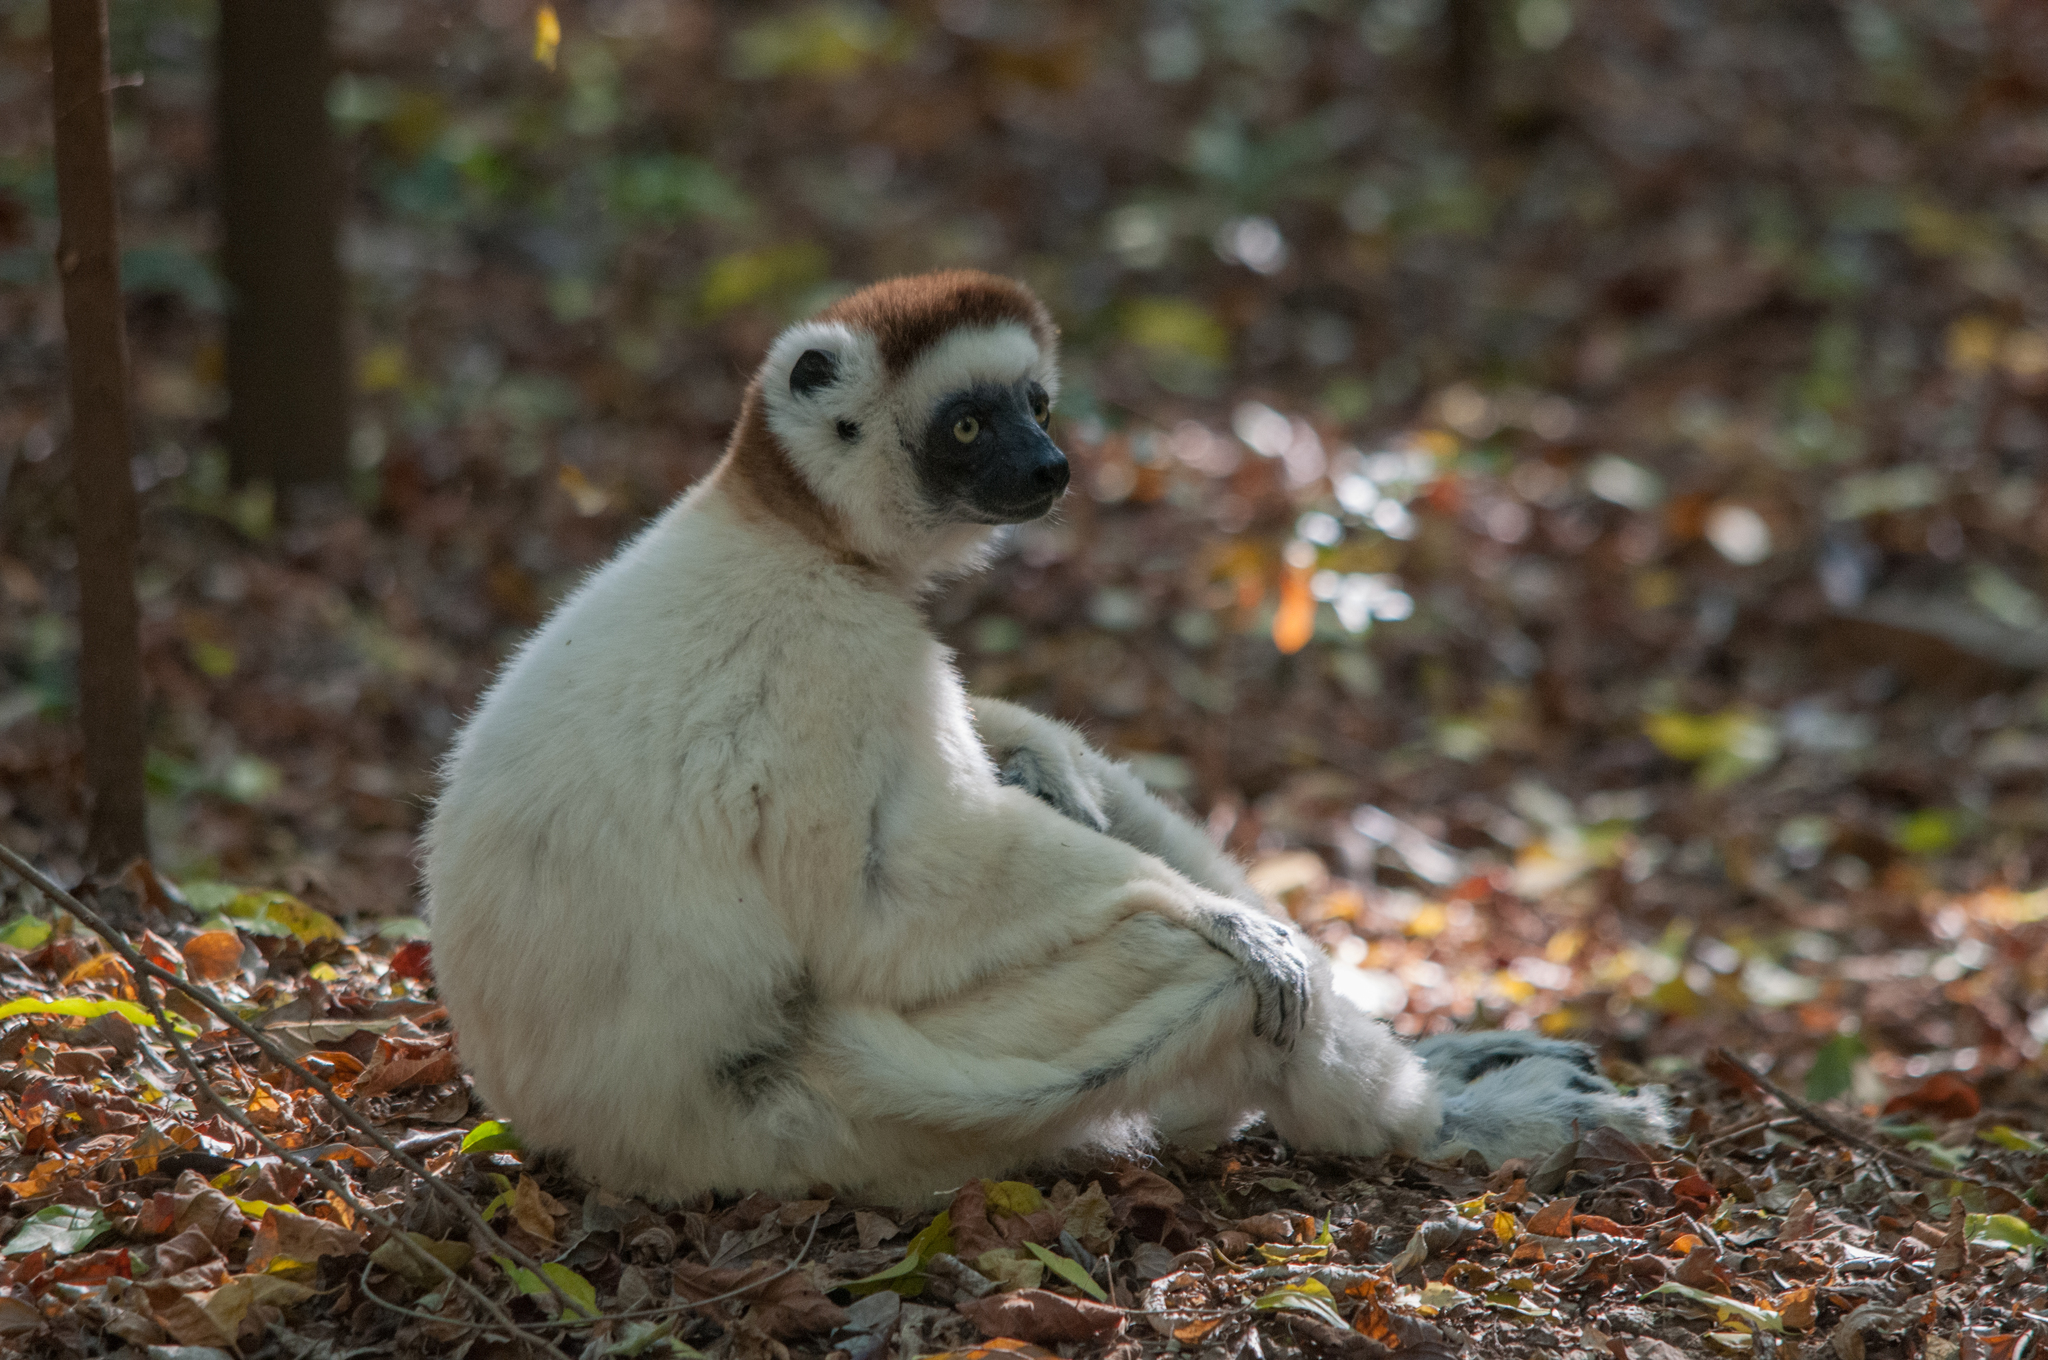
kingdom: Animalia
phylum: Chordata
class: Mammalia
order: Primates
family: Indriidae
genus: Propithecus
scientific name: Propithecus verreauxi
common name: Verreaux's sifaka
